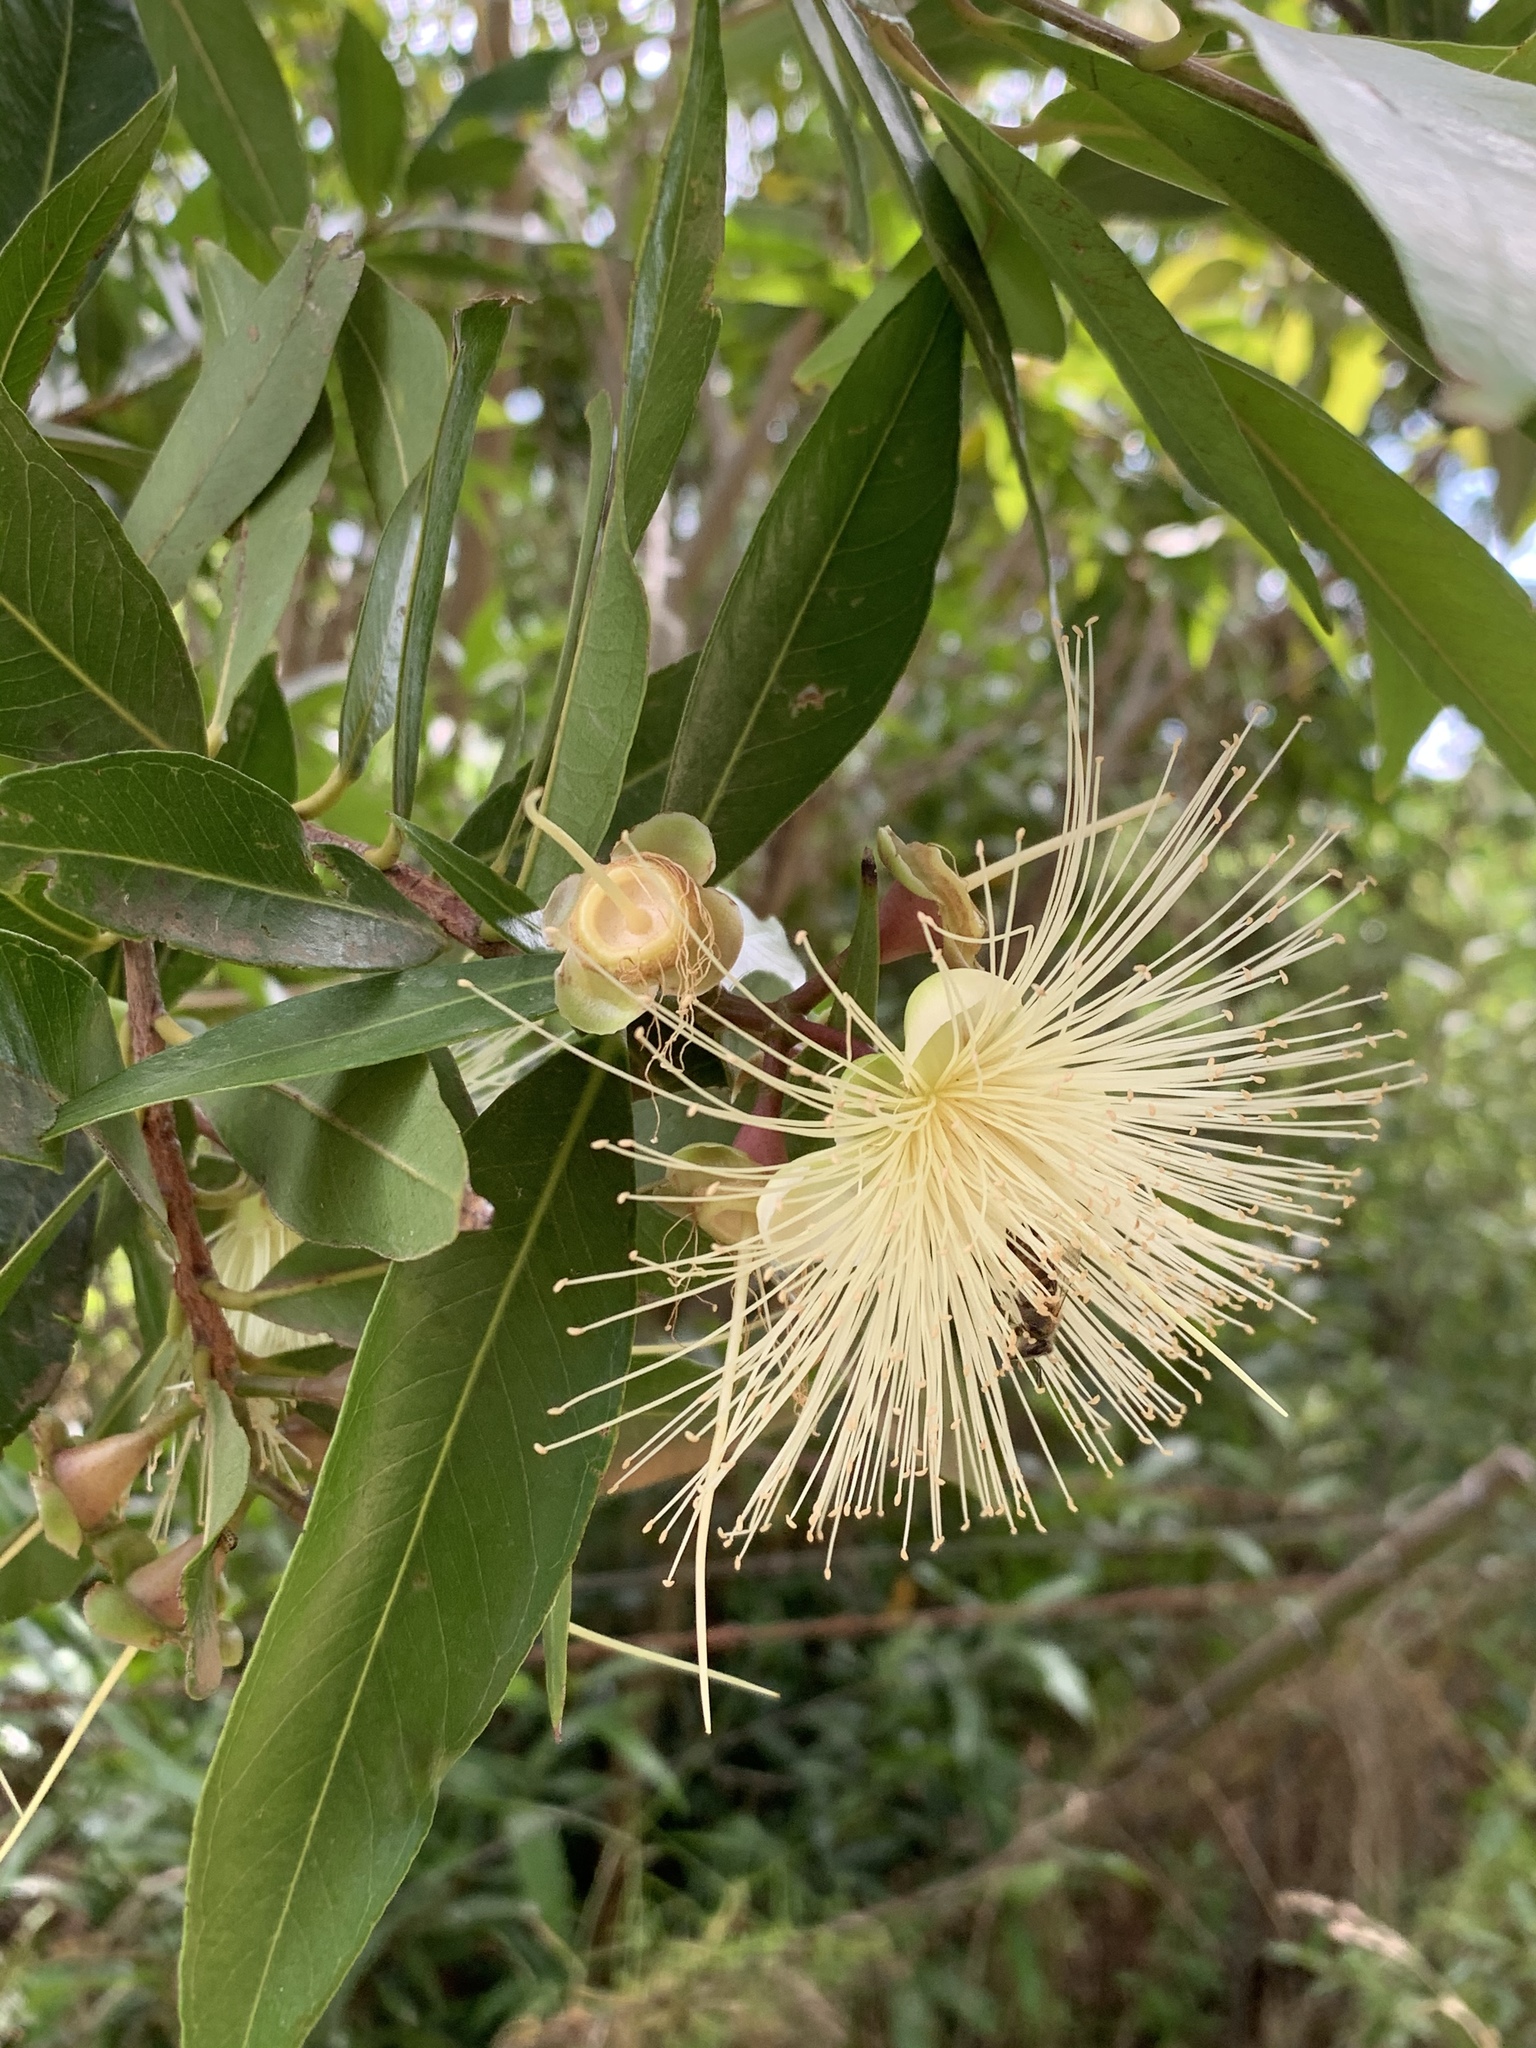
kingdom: Plantae
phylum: Tracheophyta
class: Magnoliopsida
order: Myrtales
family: Myrtaceae
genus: Syzygium
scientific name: Syzygium jambos
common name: Malabar plum
